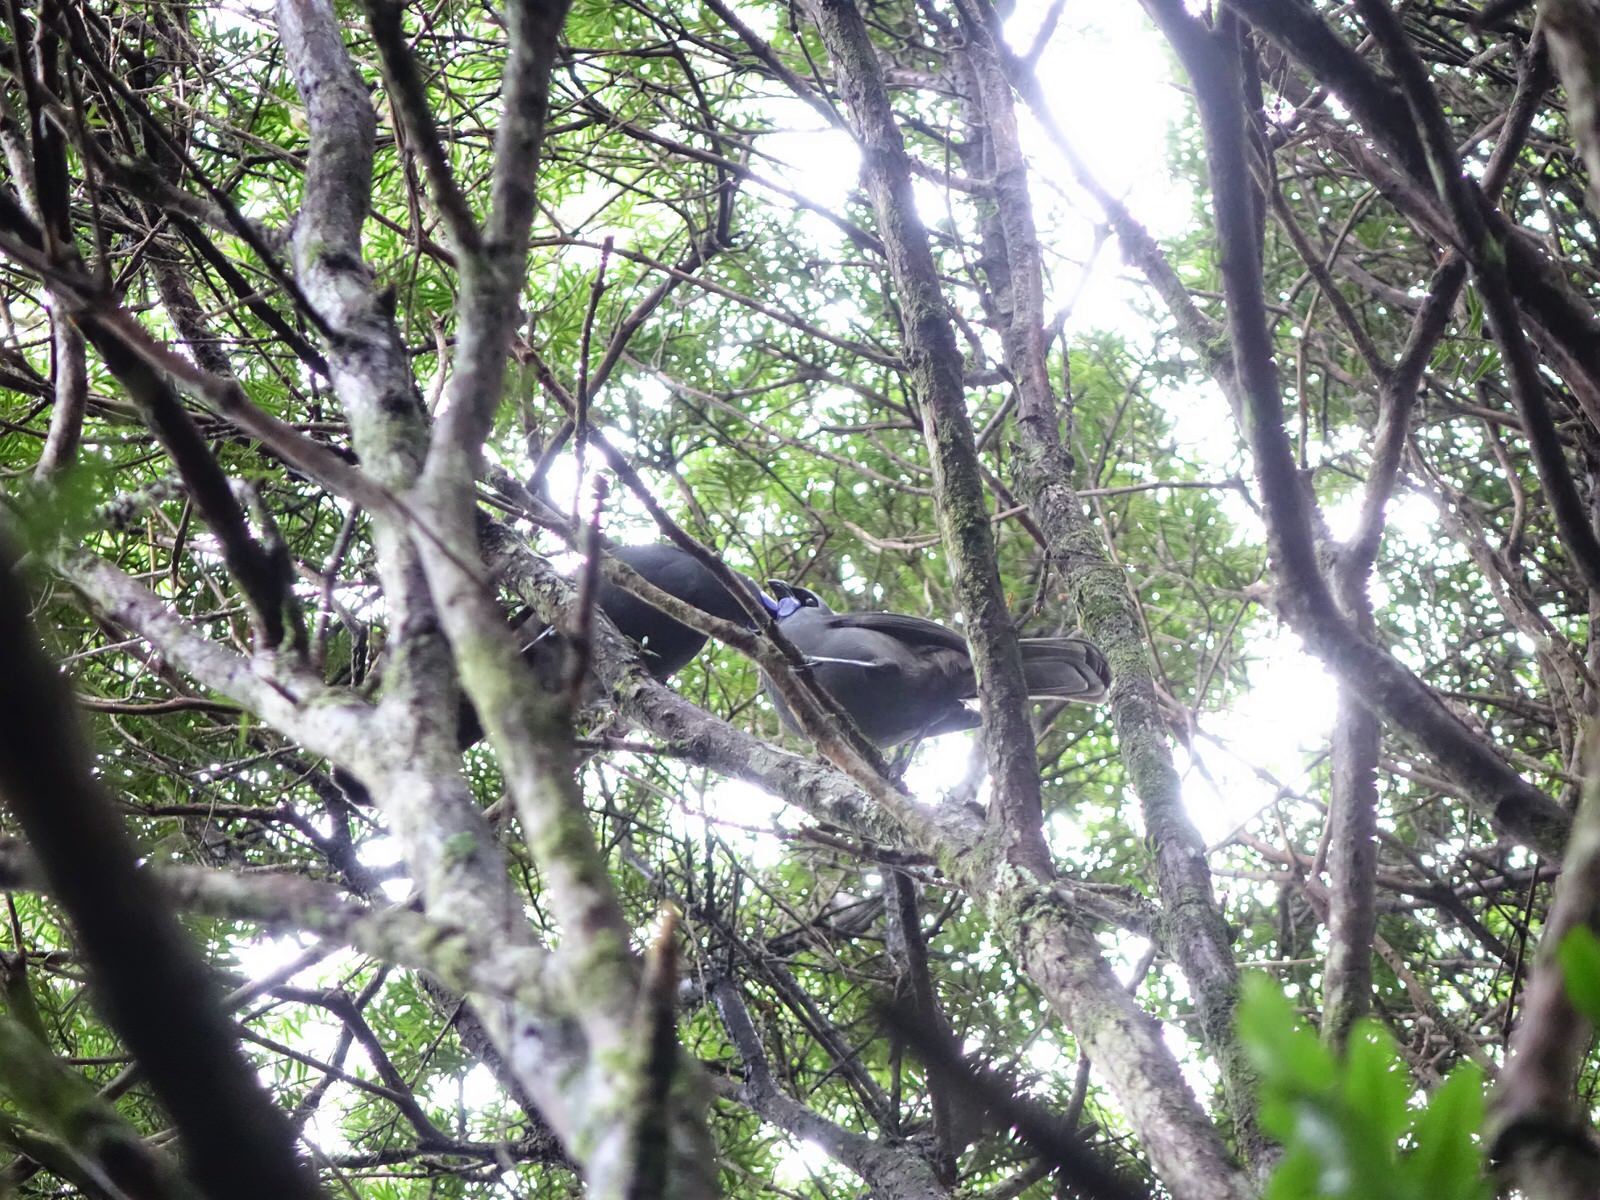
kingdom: Animalia
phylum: Chordata
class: Aves
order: Passeriformes
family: Callaeatidae
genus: Callaeas
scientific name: Callaeas cinereus
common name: South island kokako
